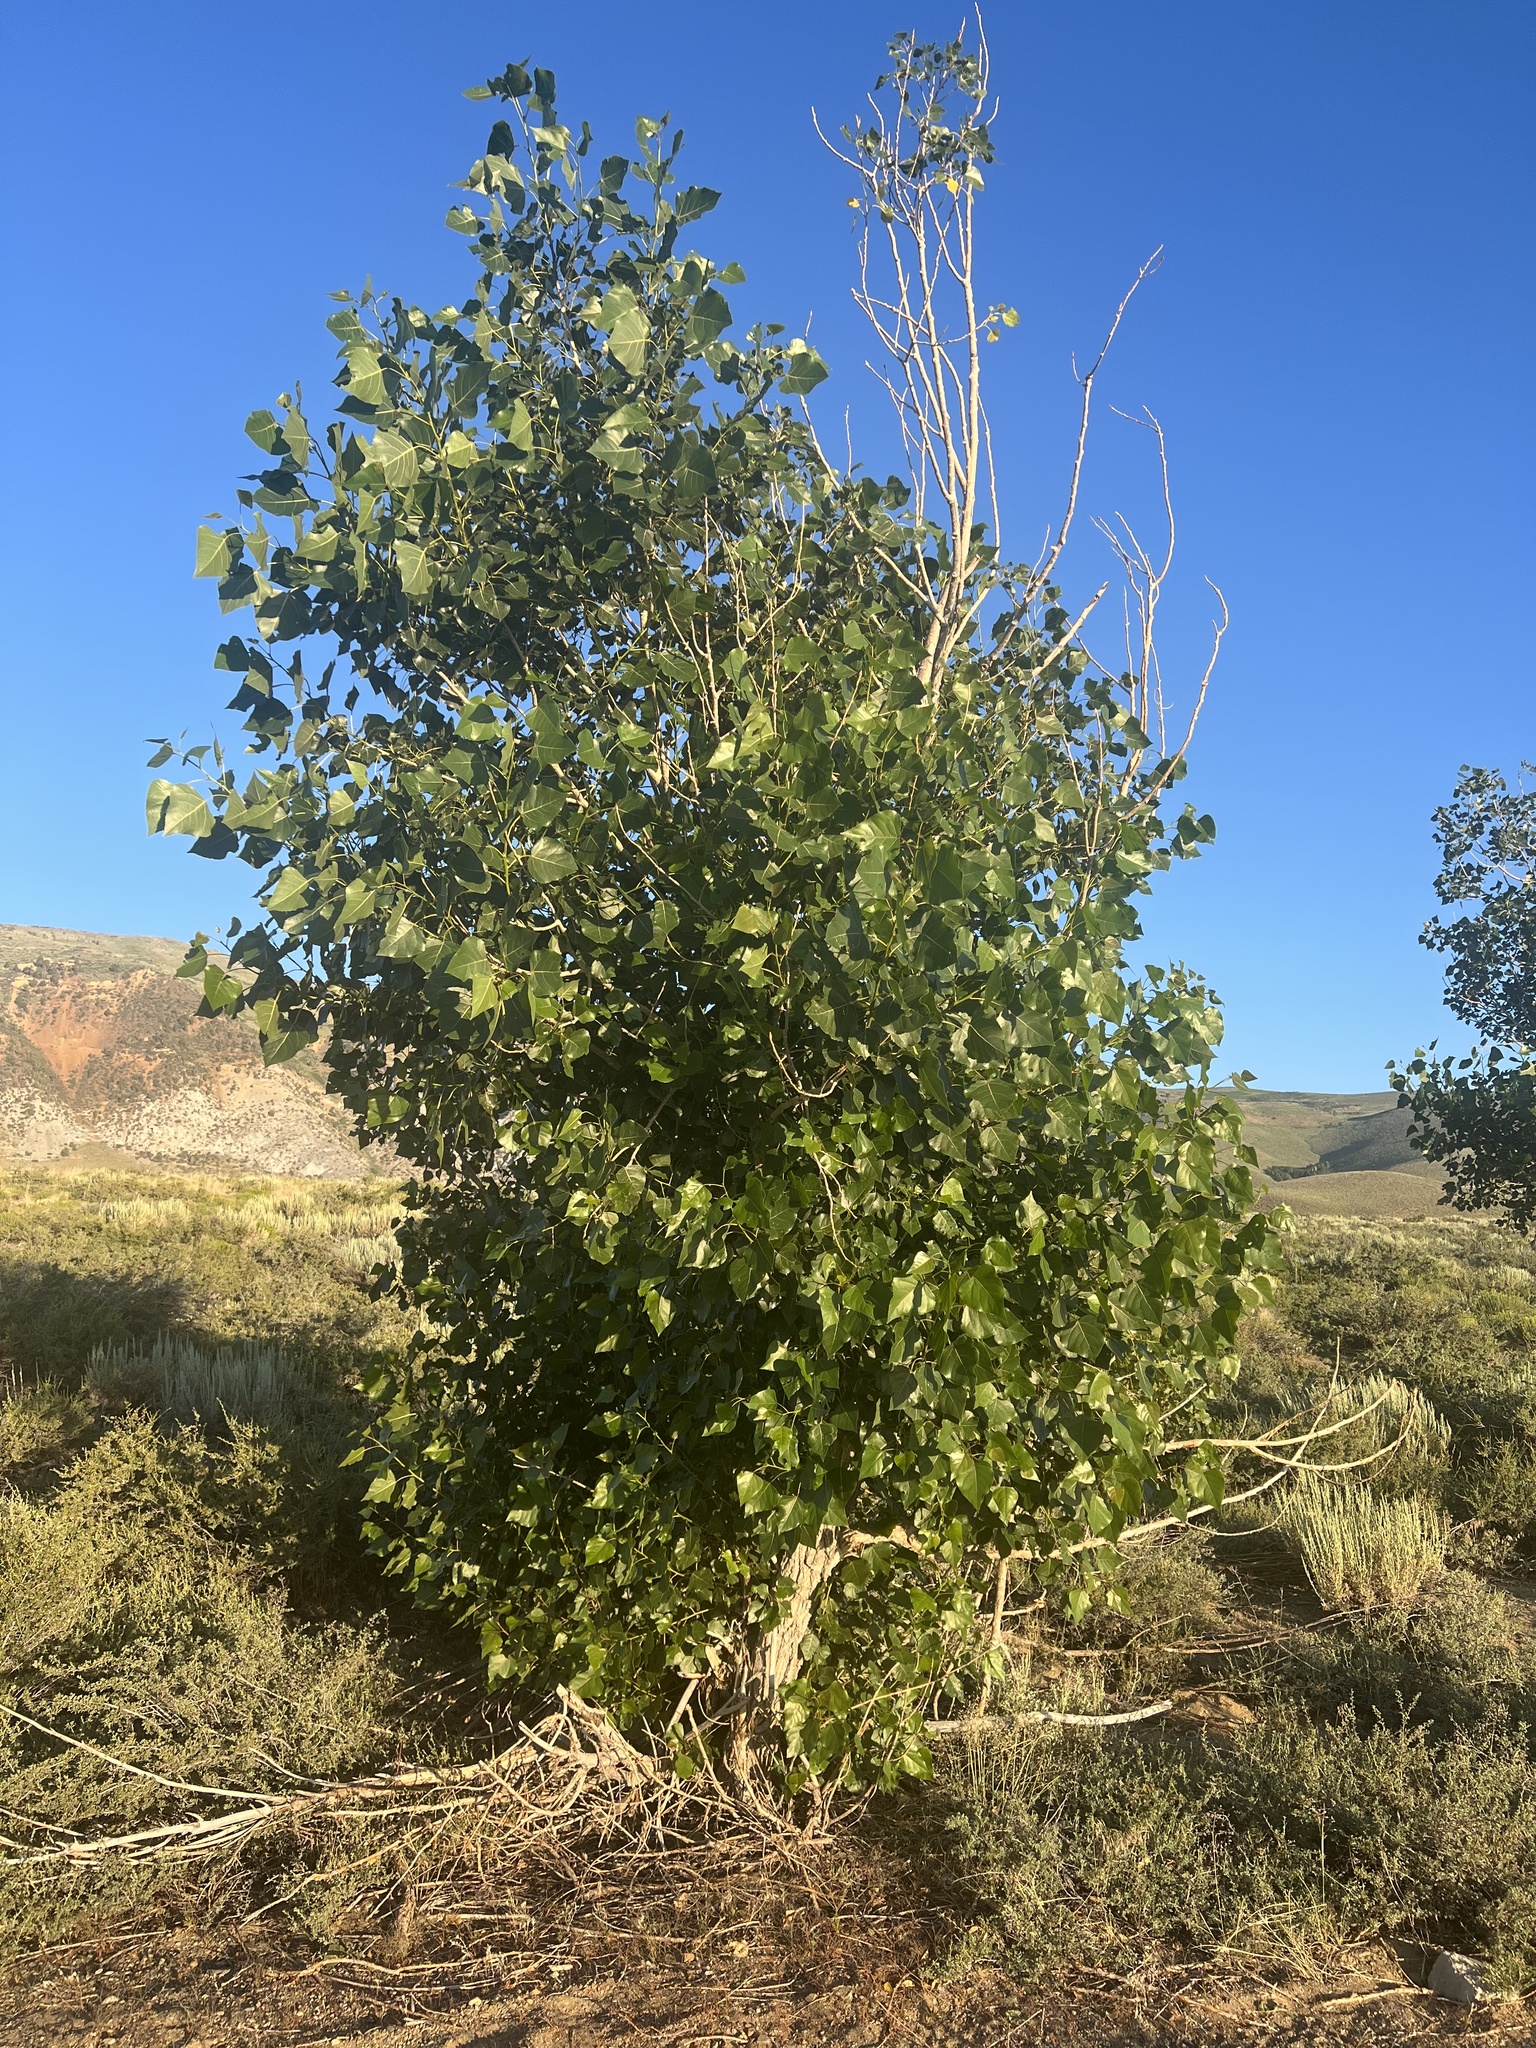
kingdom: Plantae
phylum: Tracheophyta
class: Magnoliopsida
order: Malpighiales
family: Salicaceae
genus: Populus
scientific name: Populus fremontii
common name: Fremont's cottonwood
